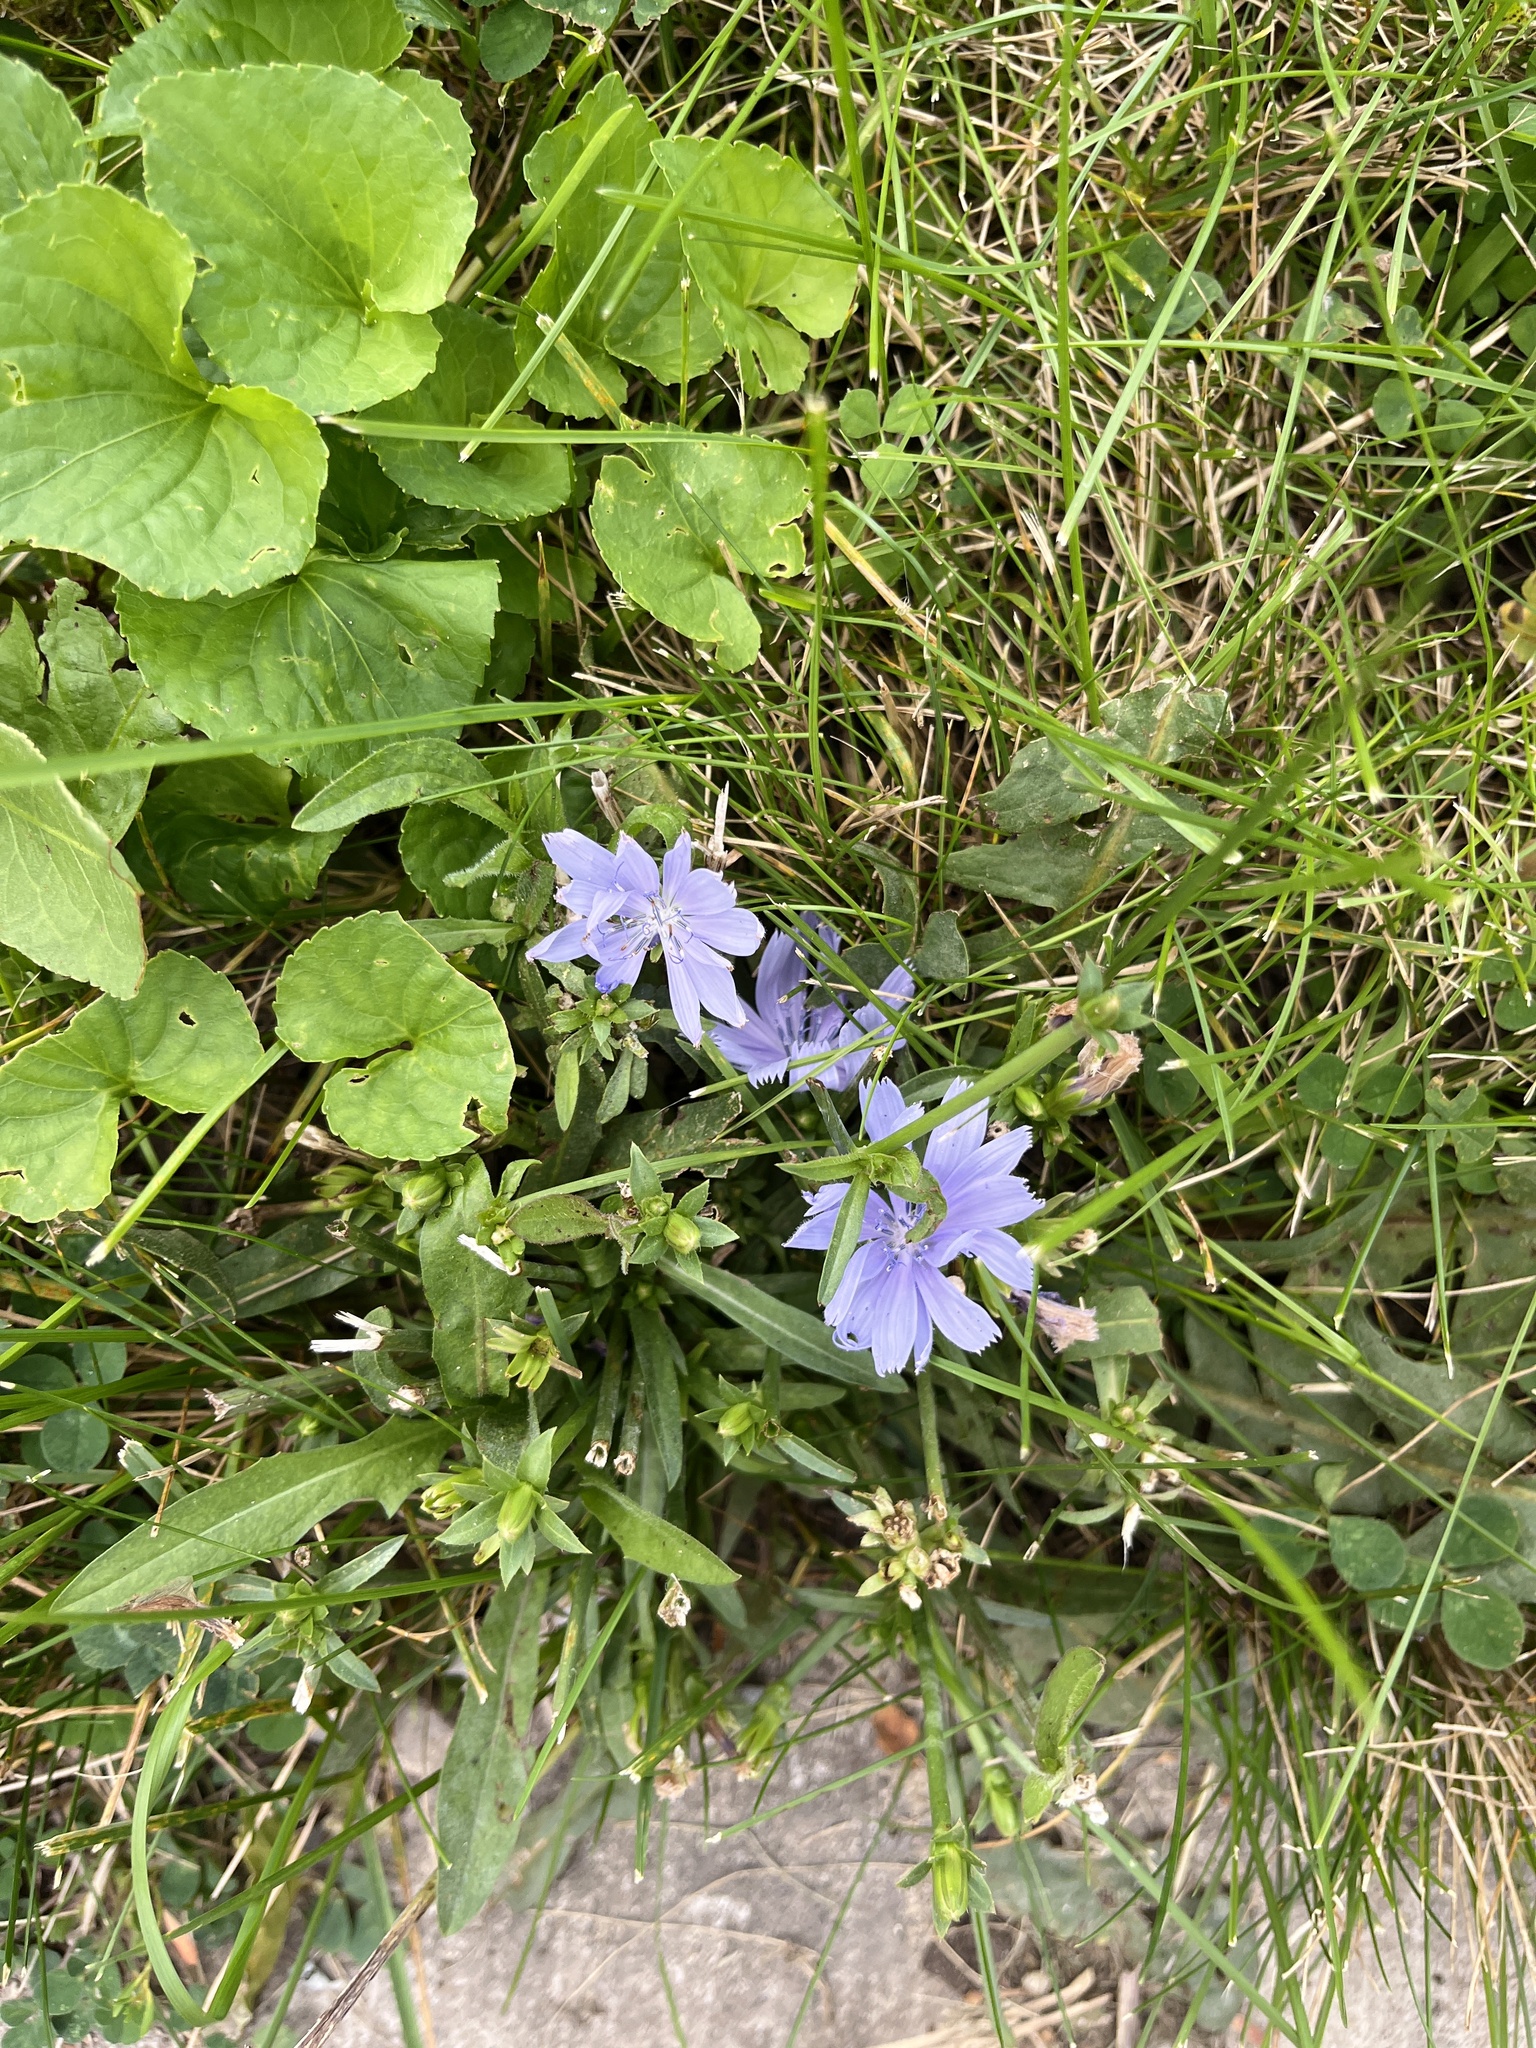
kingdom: Plantae
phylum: Tracheophyta
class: Magnoliopsida
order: Asterales
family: Asteraceae
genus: Cichorium
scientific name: Cichorium intybus
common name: Chicory
